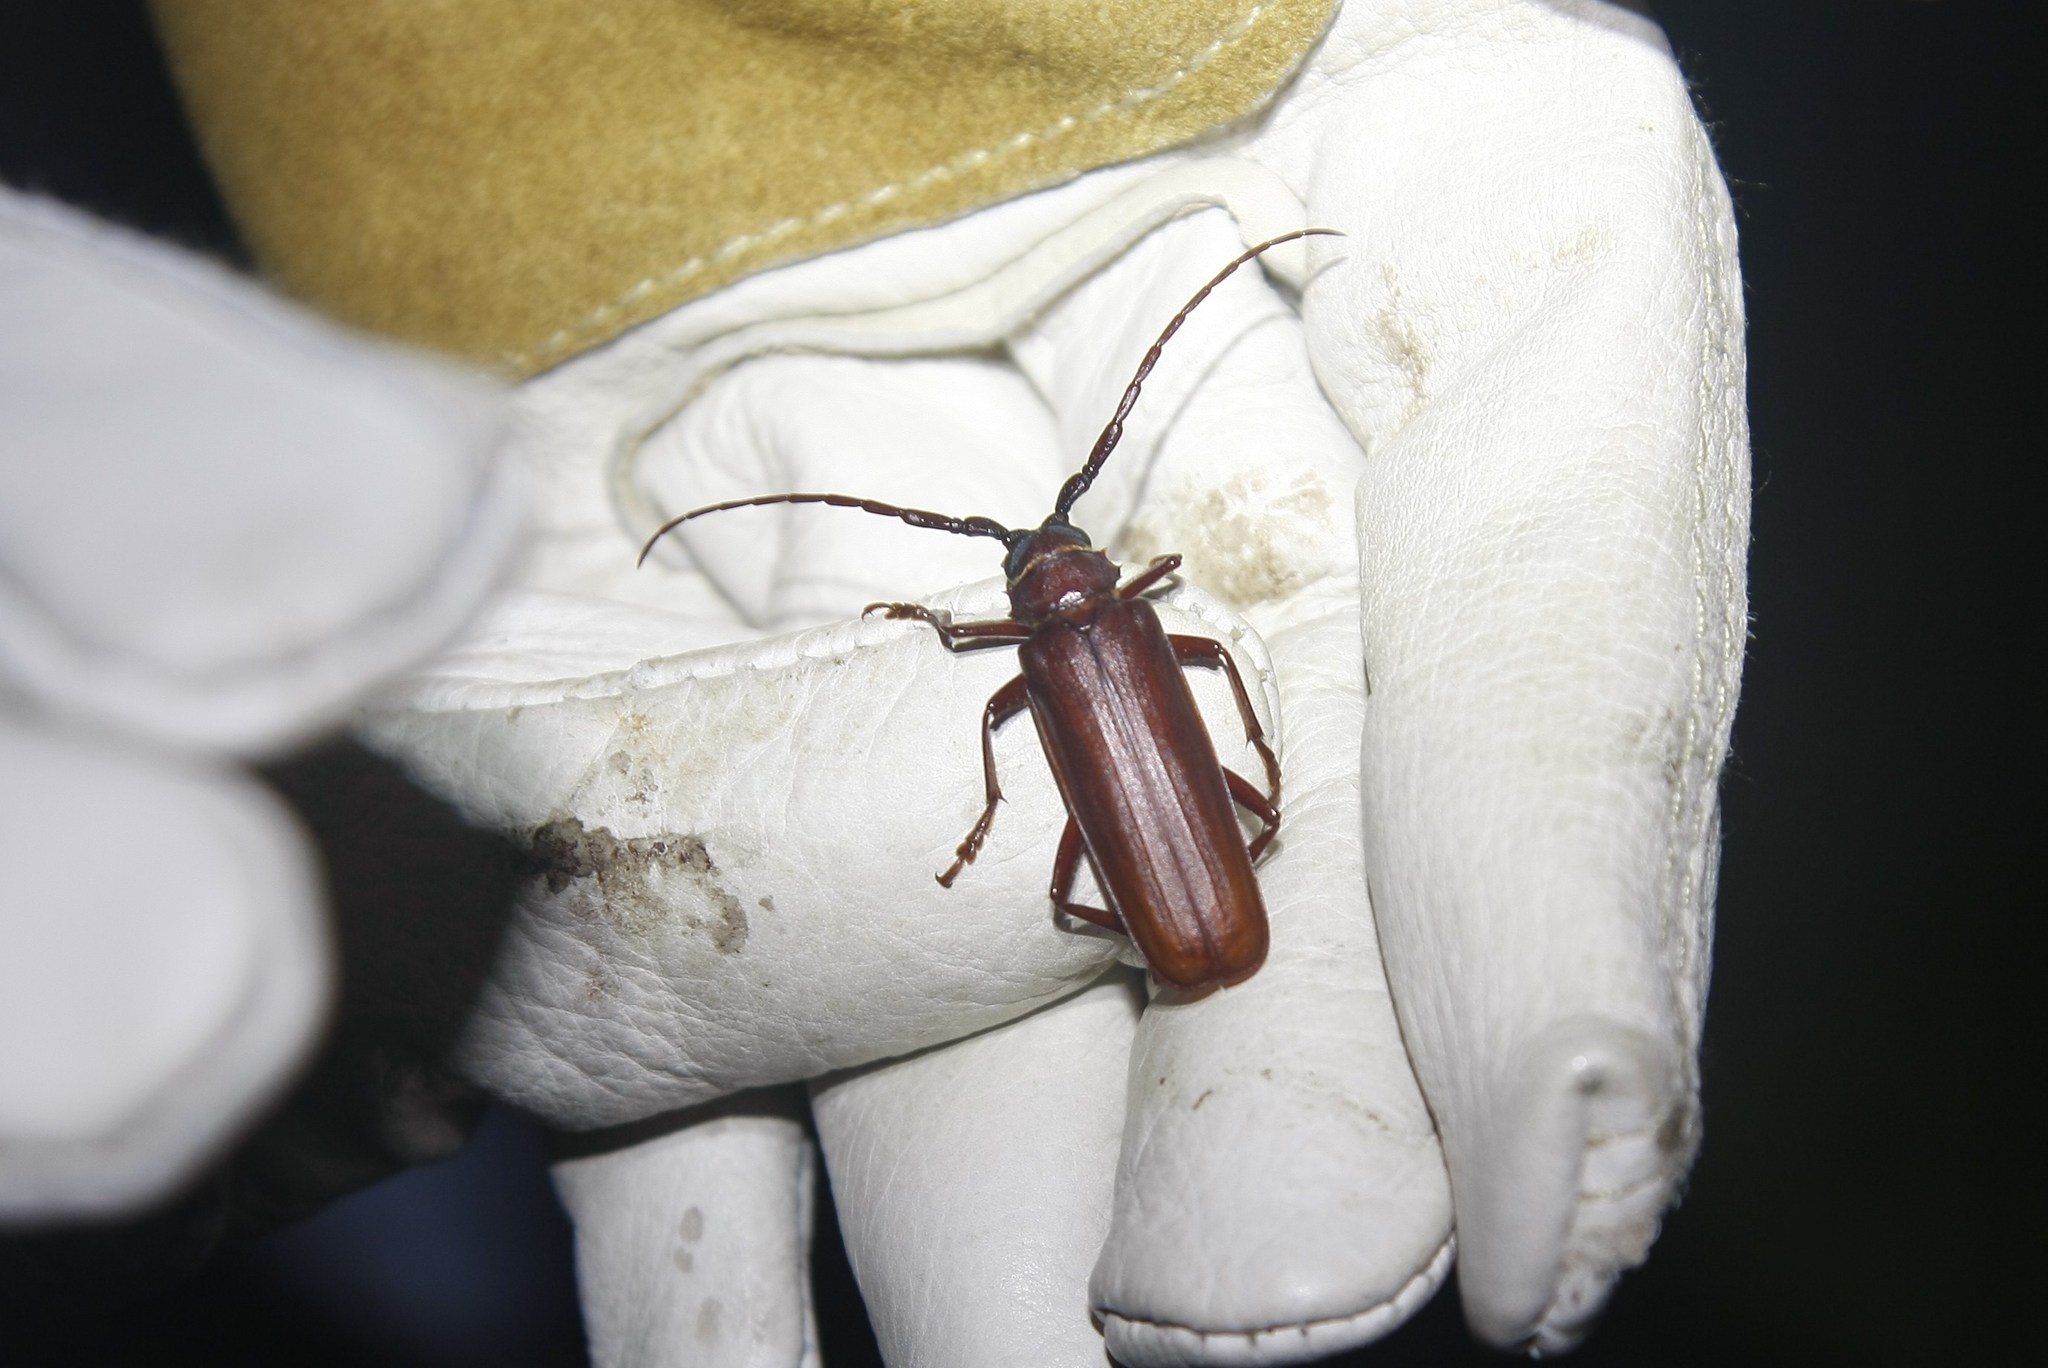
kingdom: Animalia
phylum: Arthropoda
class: Insecta
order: Coleoptera
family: Cerambycidae
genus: Orthosoma
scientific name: Orthosoma brunneum
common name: Brown prionid beetle
